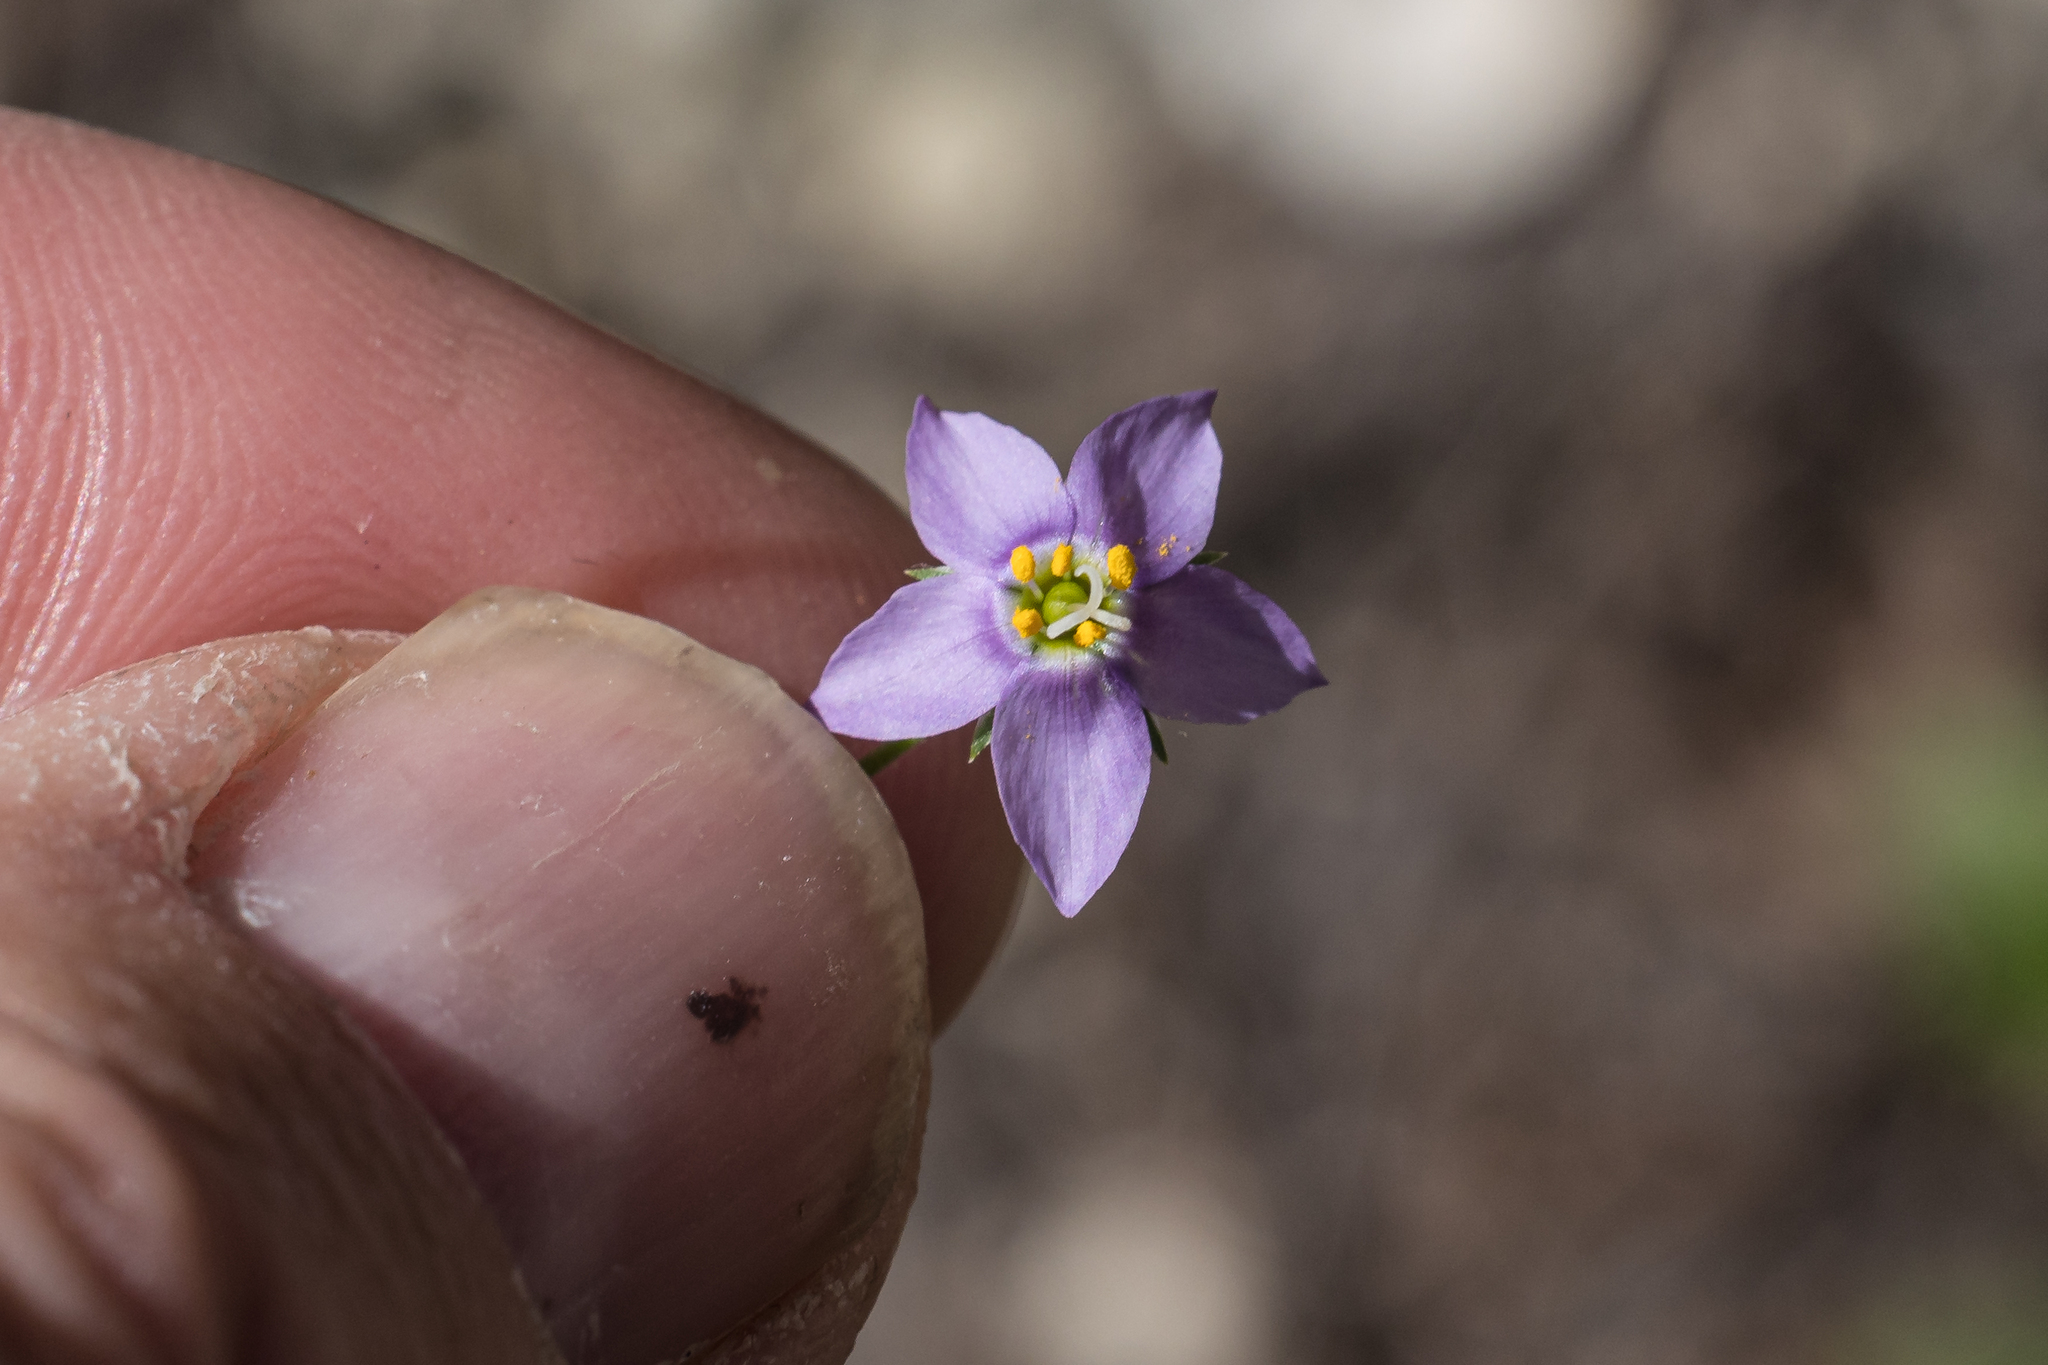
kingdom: Plantae
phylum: Tracheophyta
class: Magnoliopsida
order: Ericales
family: Polemoniaceae
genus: Giliastrum
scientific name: Giliastrum incisum
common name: Splitleaf gilia
